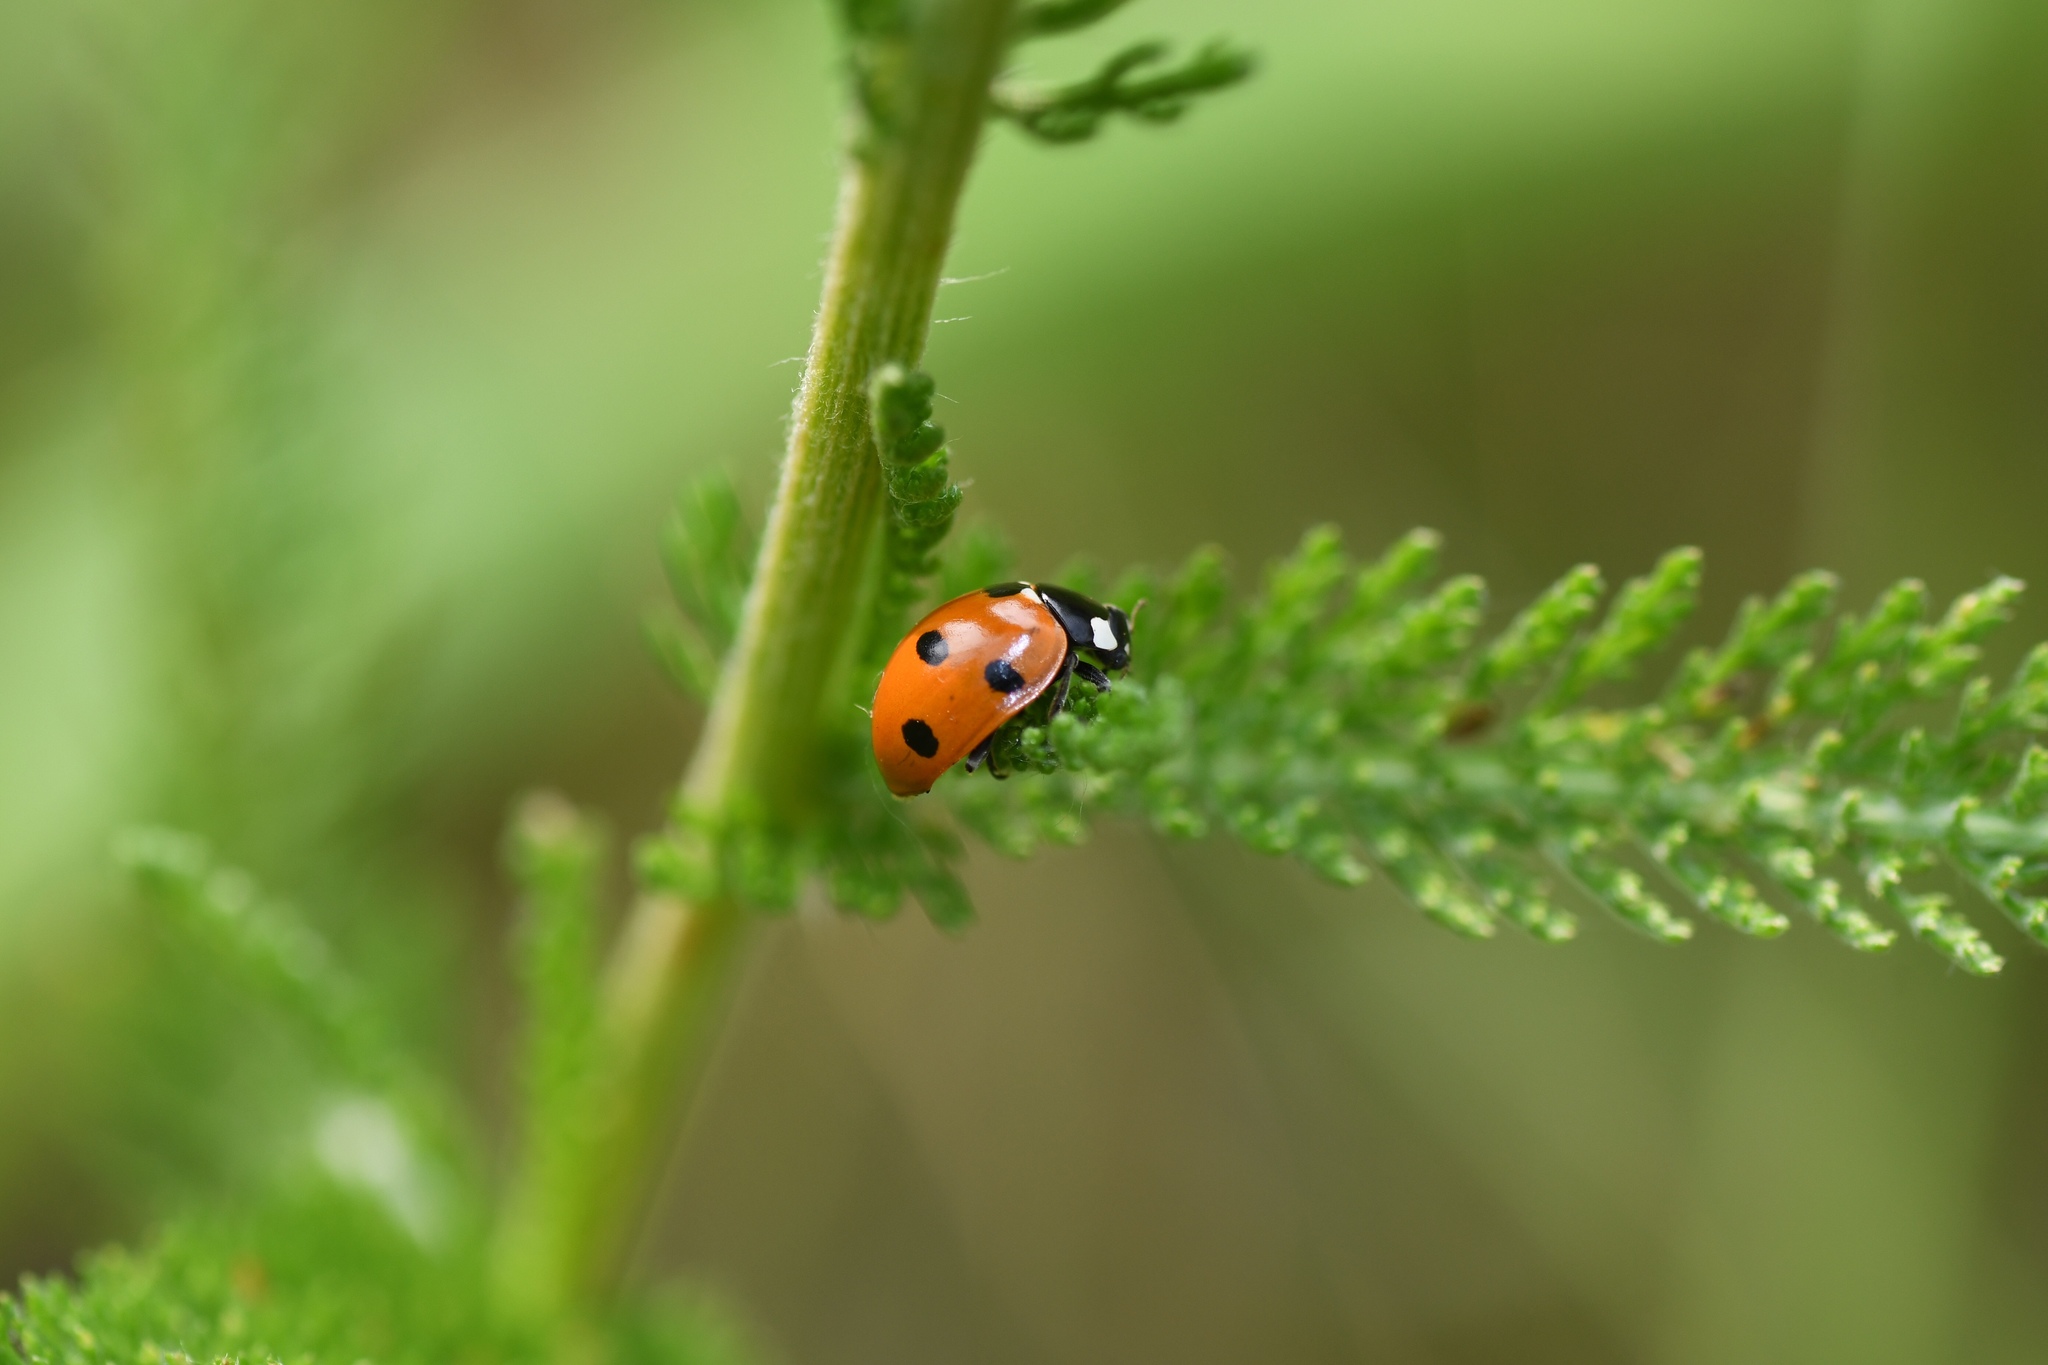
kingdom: Animalia
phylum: Arthropoda
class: Insecta
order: Coleoptera
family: Coccinellidae
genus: Coccinella
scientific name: Coccinella septempunctata
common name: Sevenspotted lady beetle
